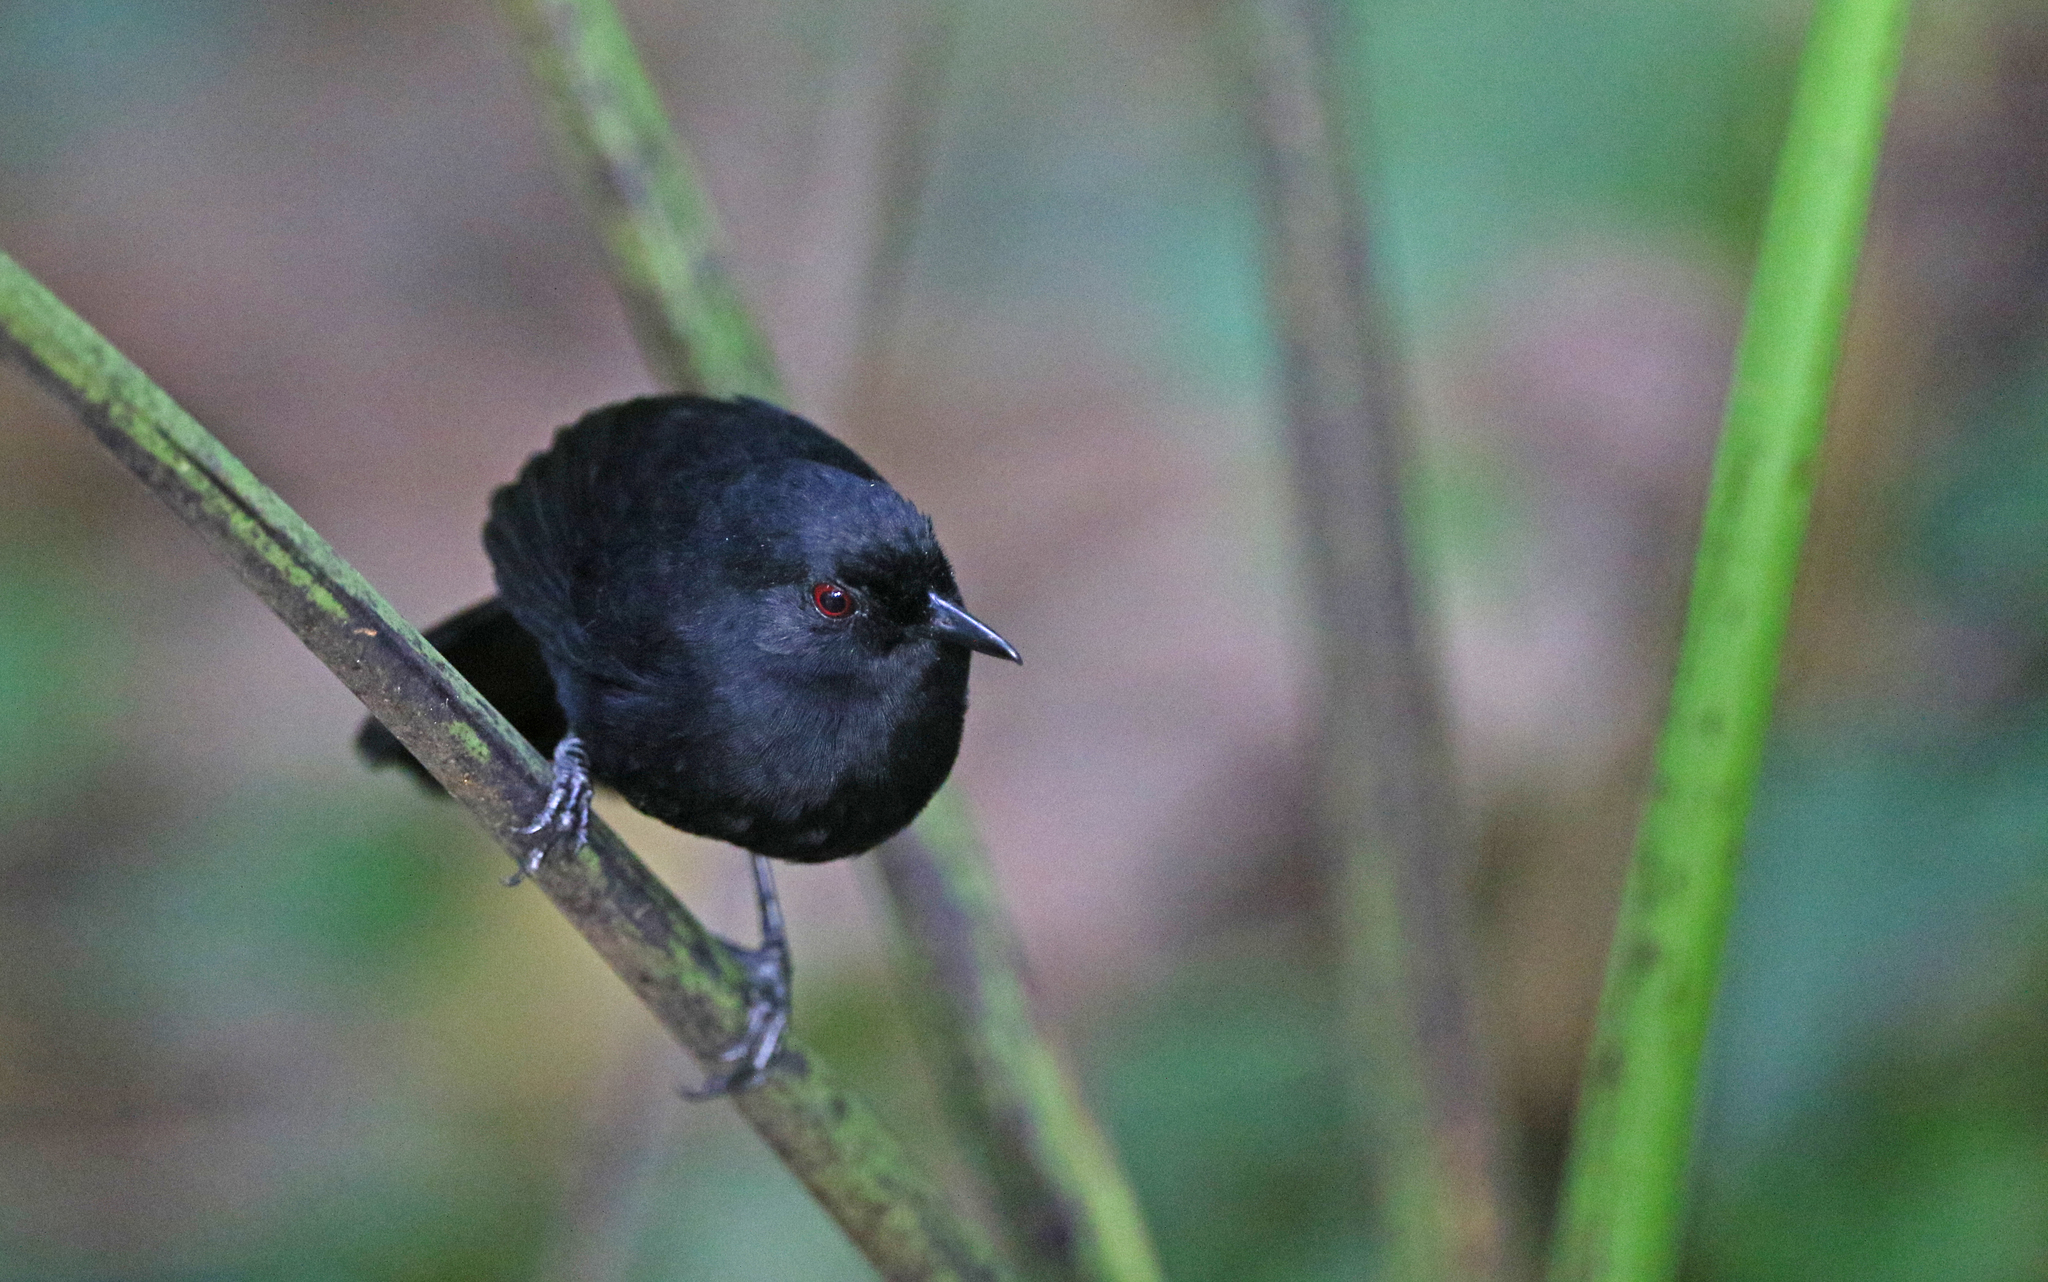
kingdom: Animalia
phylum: Chordata
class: Aves
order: Passeriformes
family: Thamnophilidae
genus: Pyriglena
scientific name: Pyriglena leuconota
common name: White-backed fire-eye
